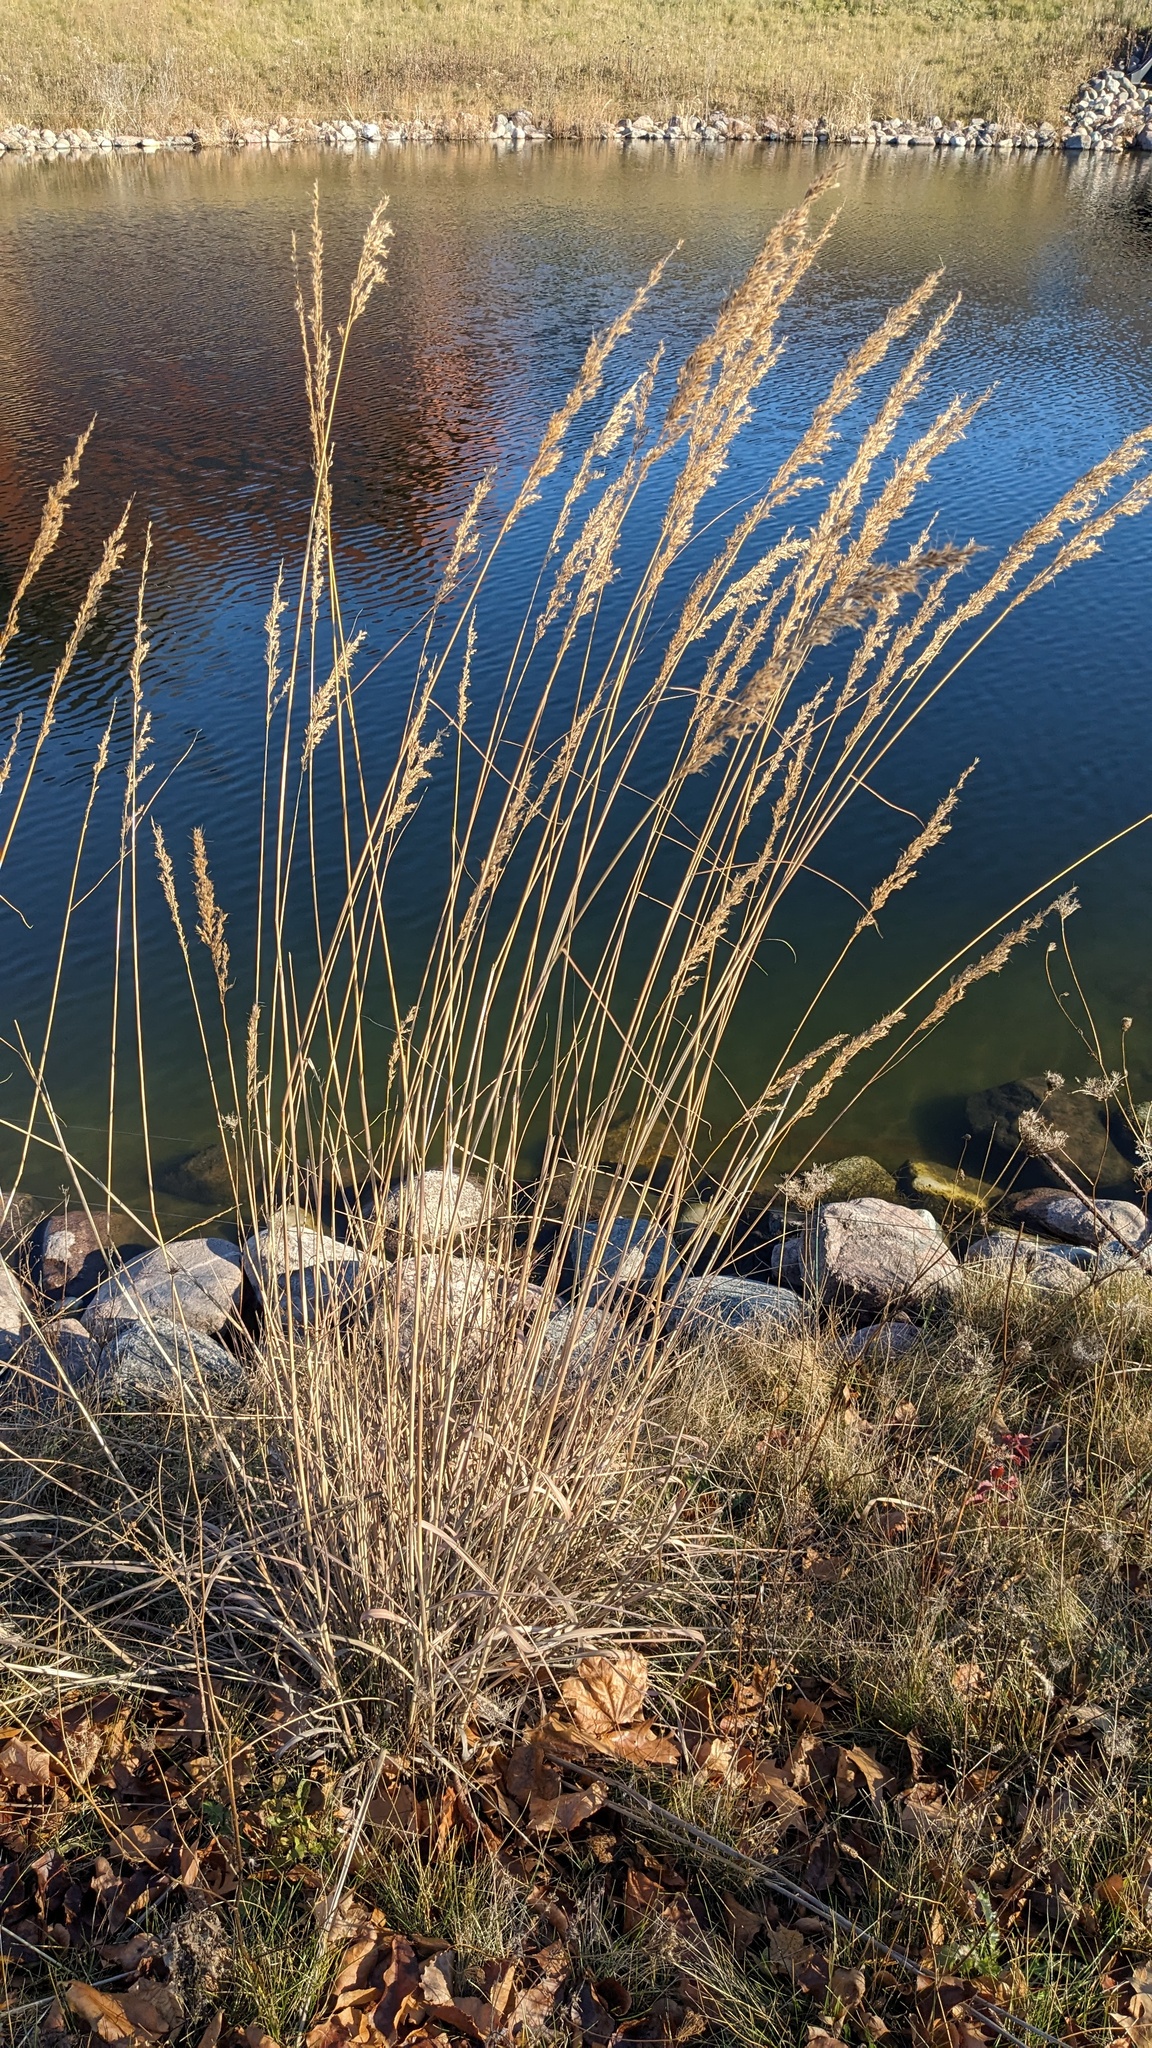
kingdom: Plantae
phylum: Tracheophyta
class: Liliopsida
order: Poales
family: Poaceae
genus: Sorghastrum
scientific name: Sorghastrum nutans
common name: Indian grass
